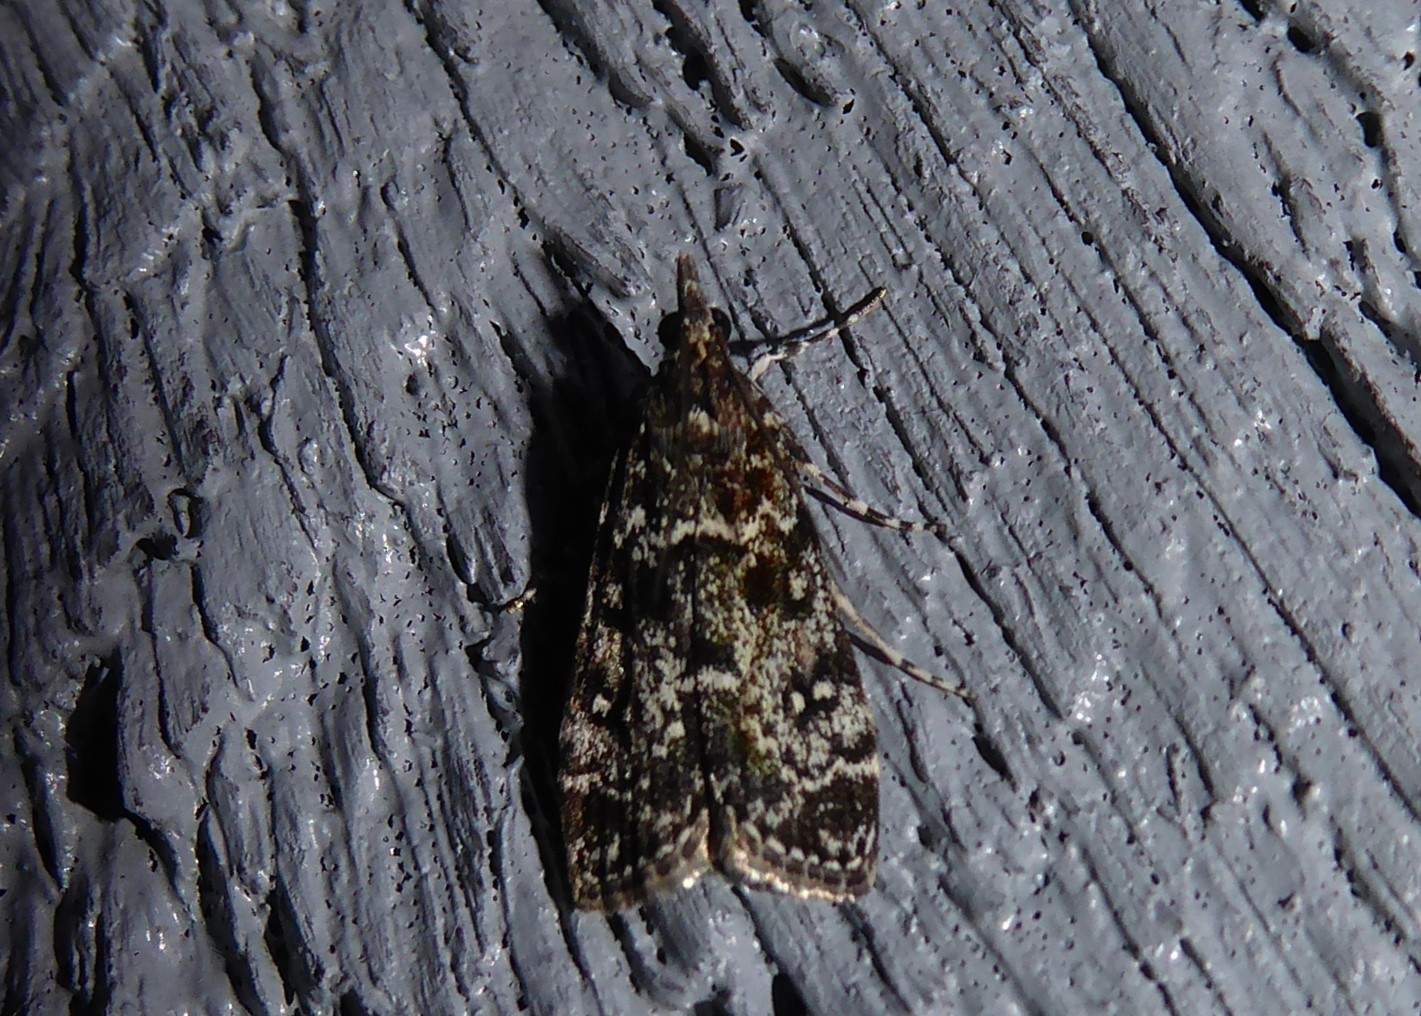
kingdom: Animalia
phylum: Arthropoda
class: Insecta
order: Lepidoptera
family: Crambidae
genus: Eudonia
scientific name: Eudonia philerga
